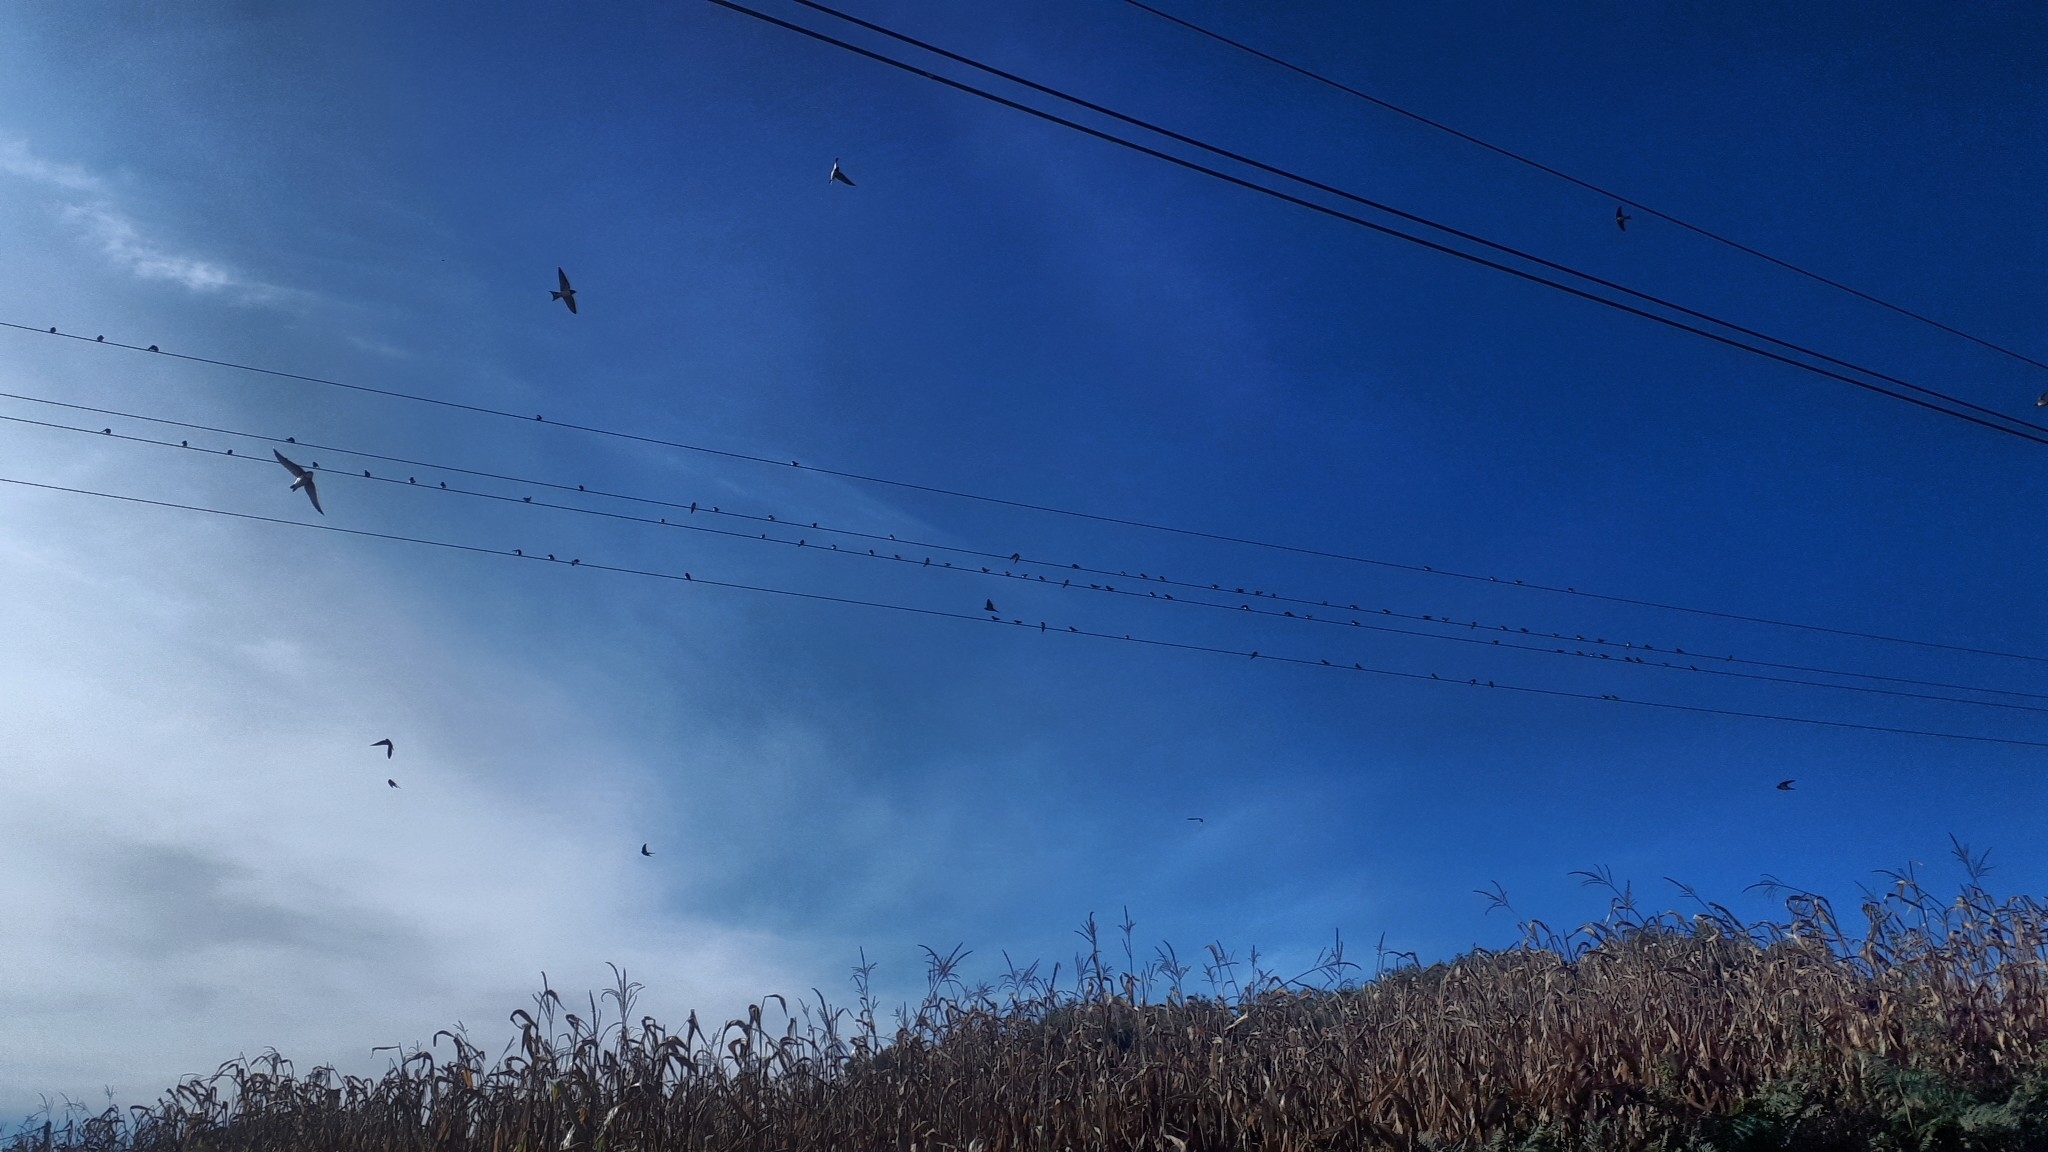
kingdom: Animalia
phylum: Chordata
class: Aves
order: Passeriformes
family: Hirundinidae
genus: Delichon
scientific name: Delichon urbicum
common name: Common house martin
